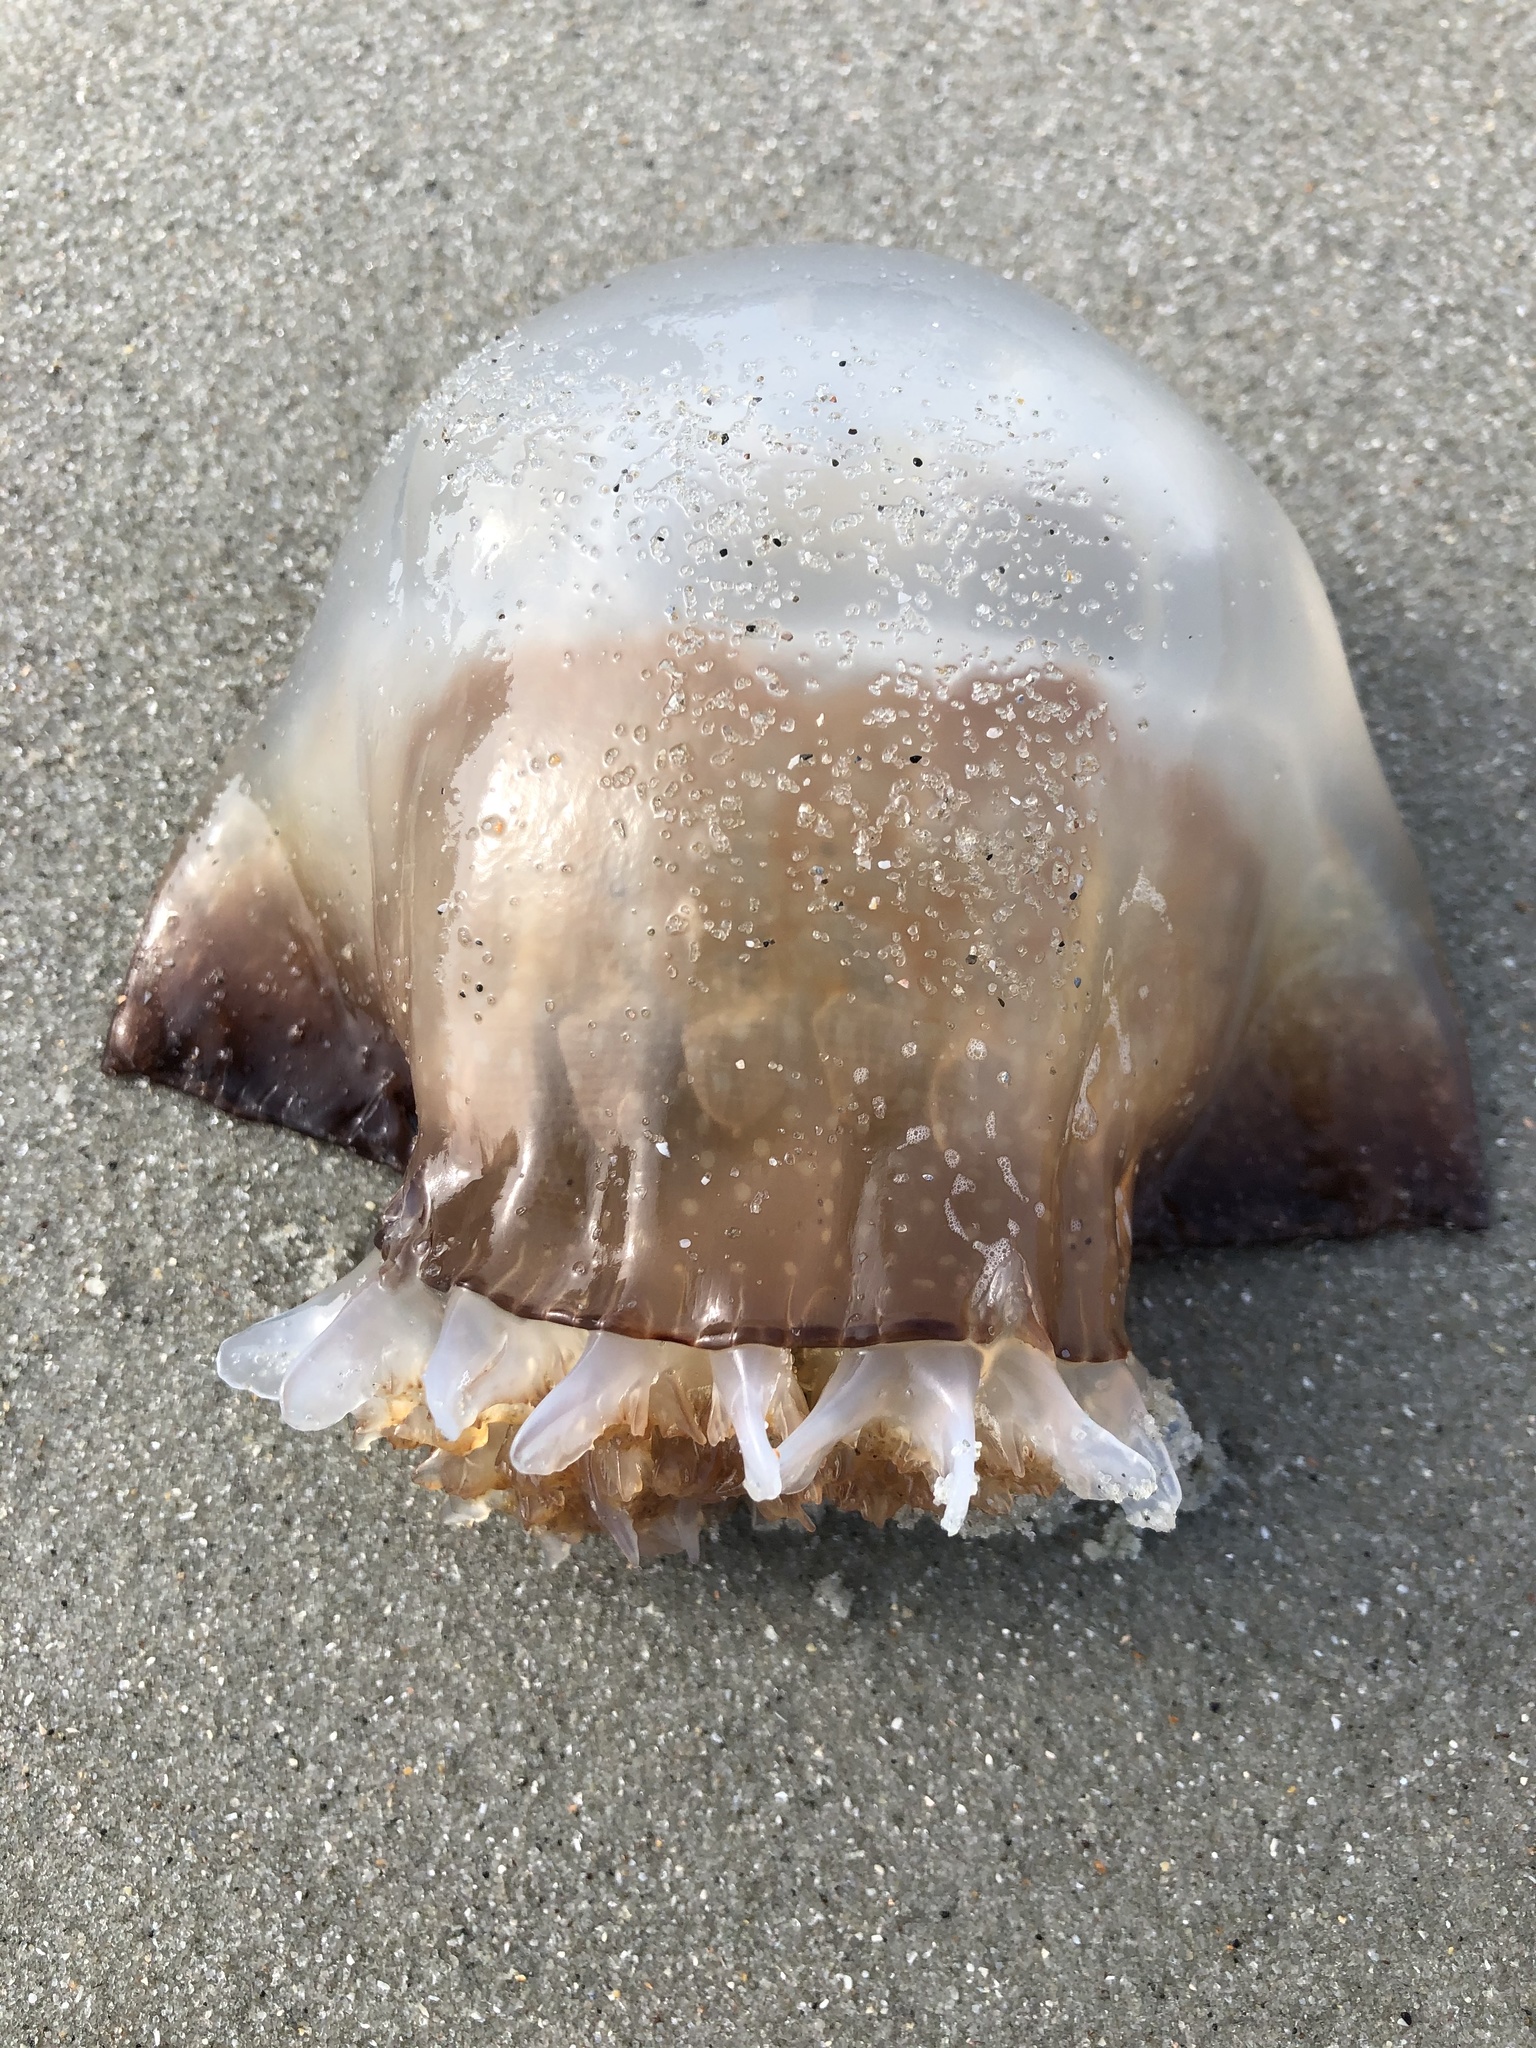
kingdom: Animalia
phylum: Cnidaria
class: Scyphozoa
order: Rhizostomeae
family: Stomolophidae
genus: Stomolophus
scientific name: Stomolophus meleagris
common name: Cabbagehead
